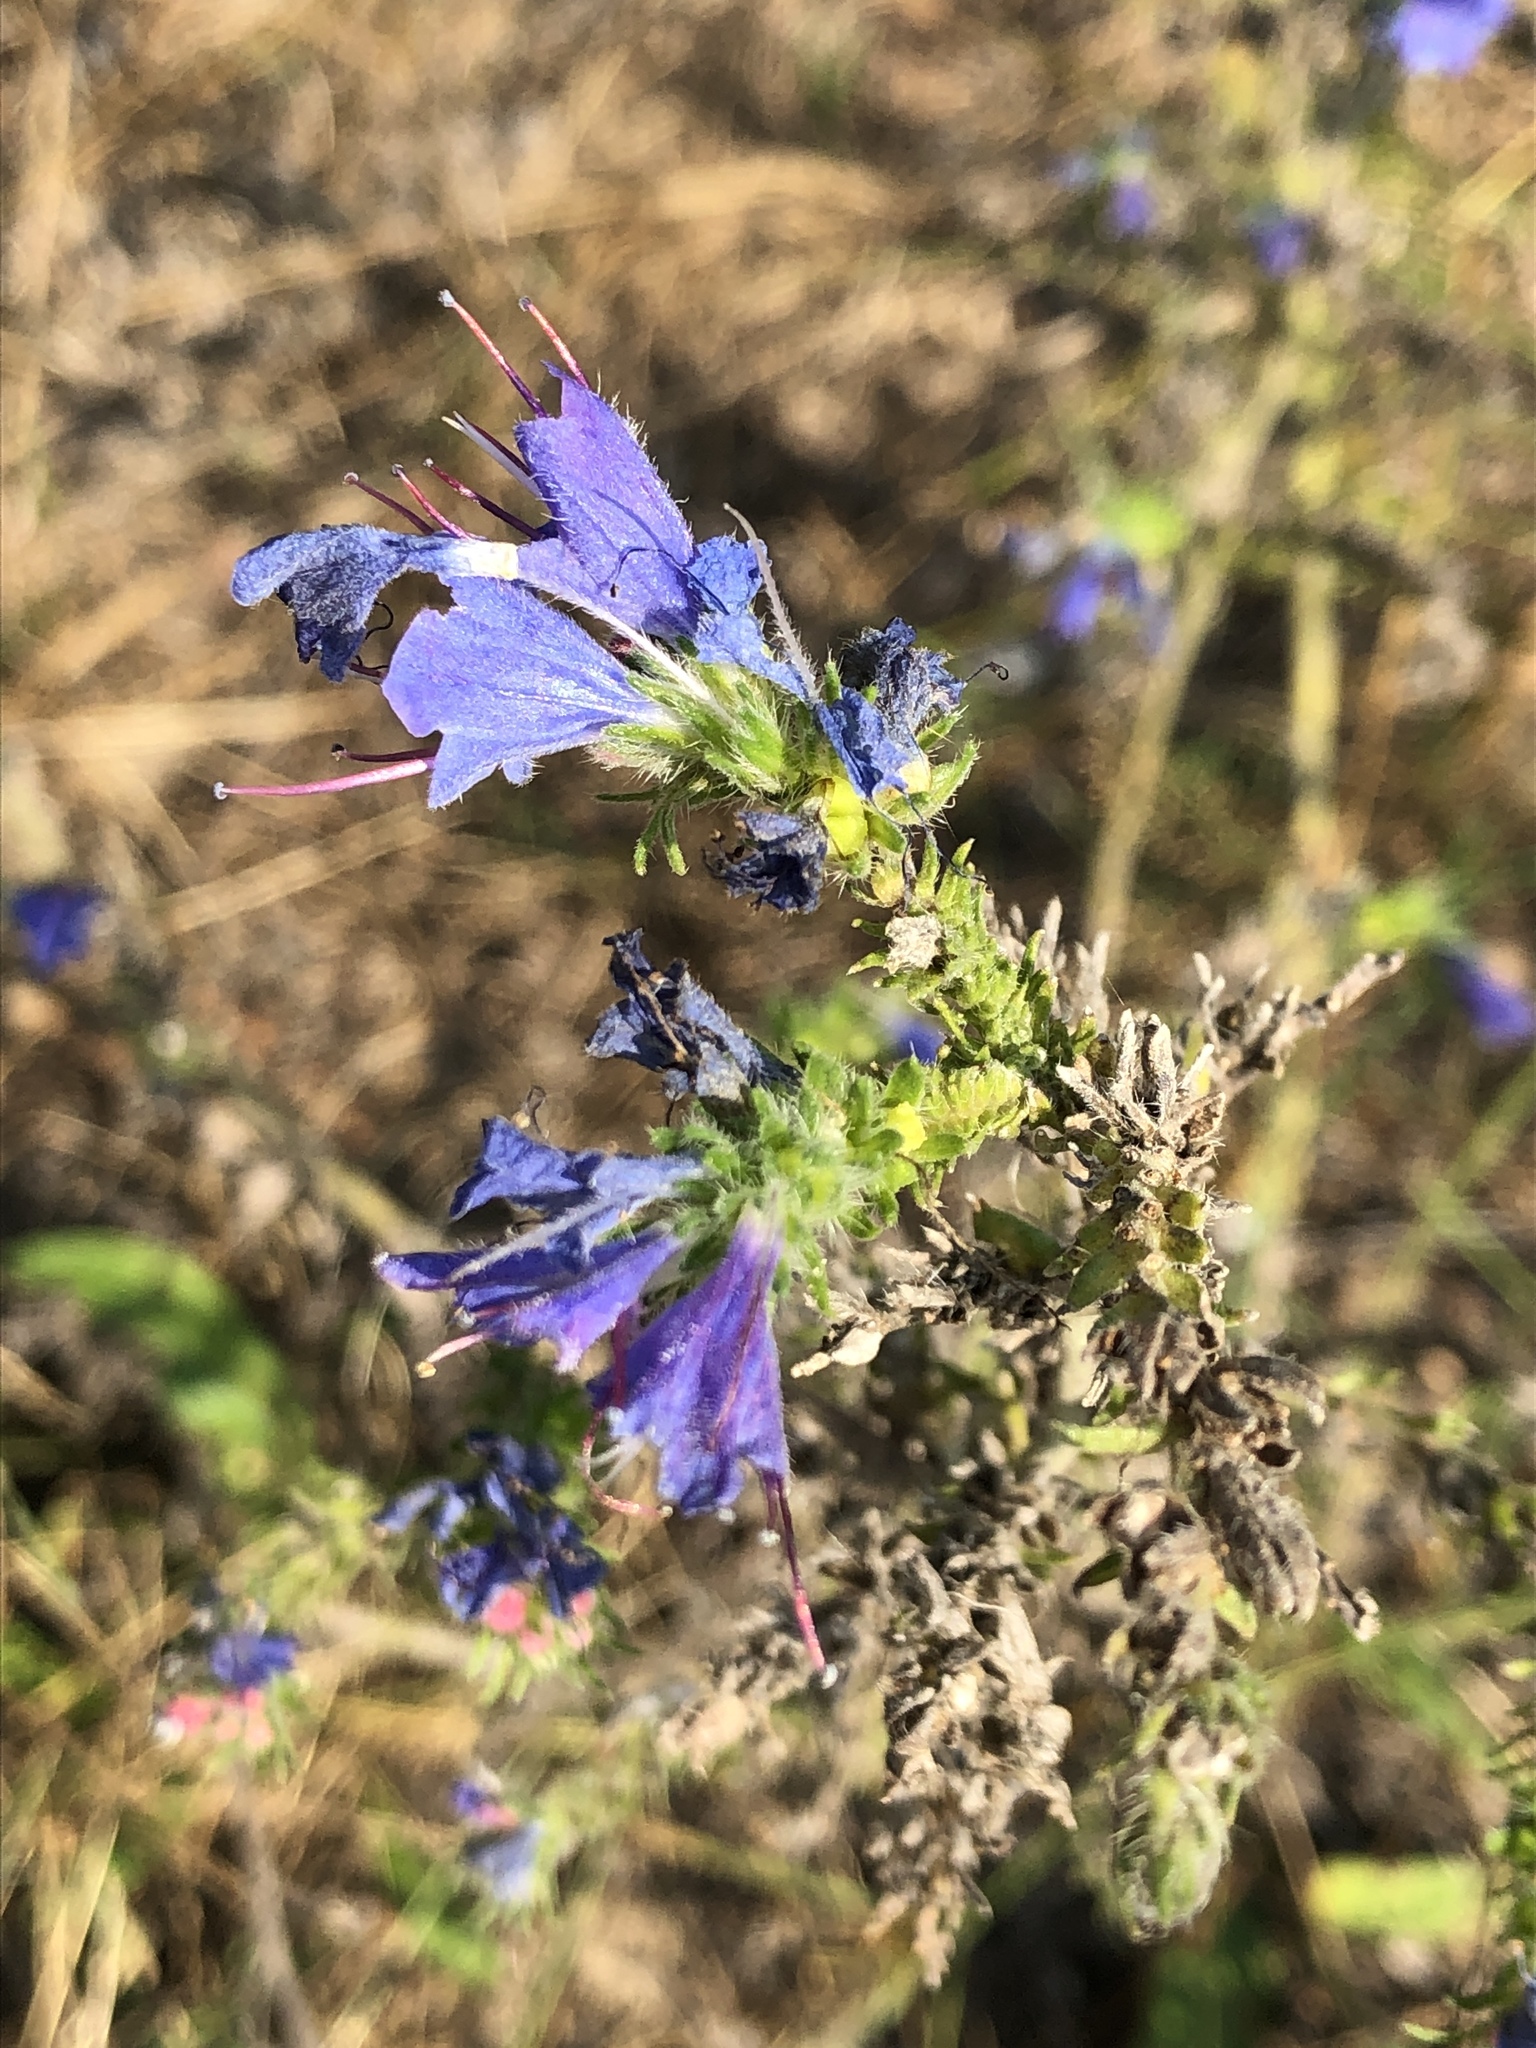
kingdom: Plantae
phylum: Tracheophyta
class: Magnoliopsida
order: Boraginales
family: Boraginaceae
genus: Echium
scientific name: Echium vulgare
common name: Common viper's bugloss
